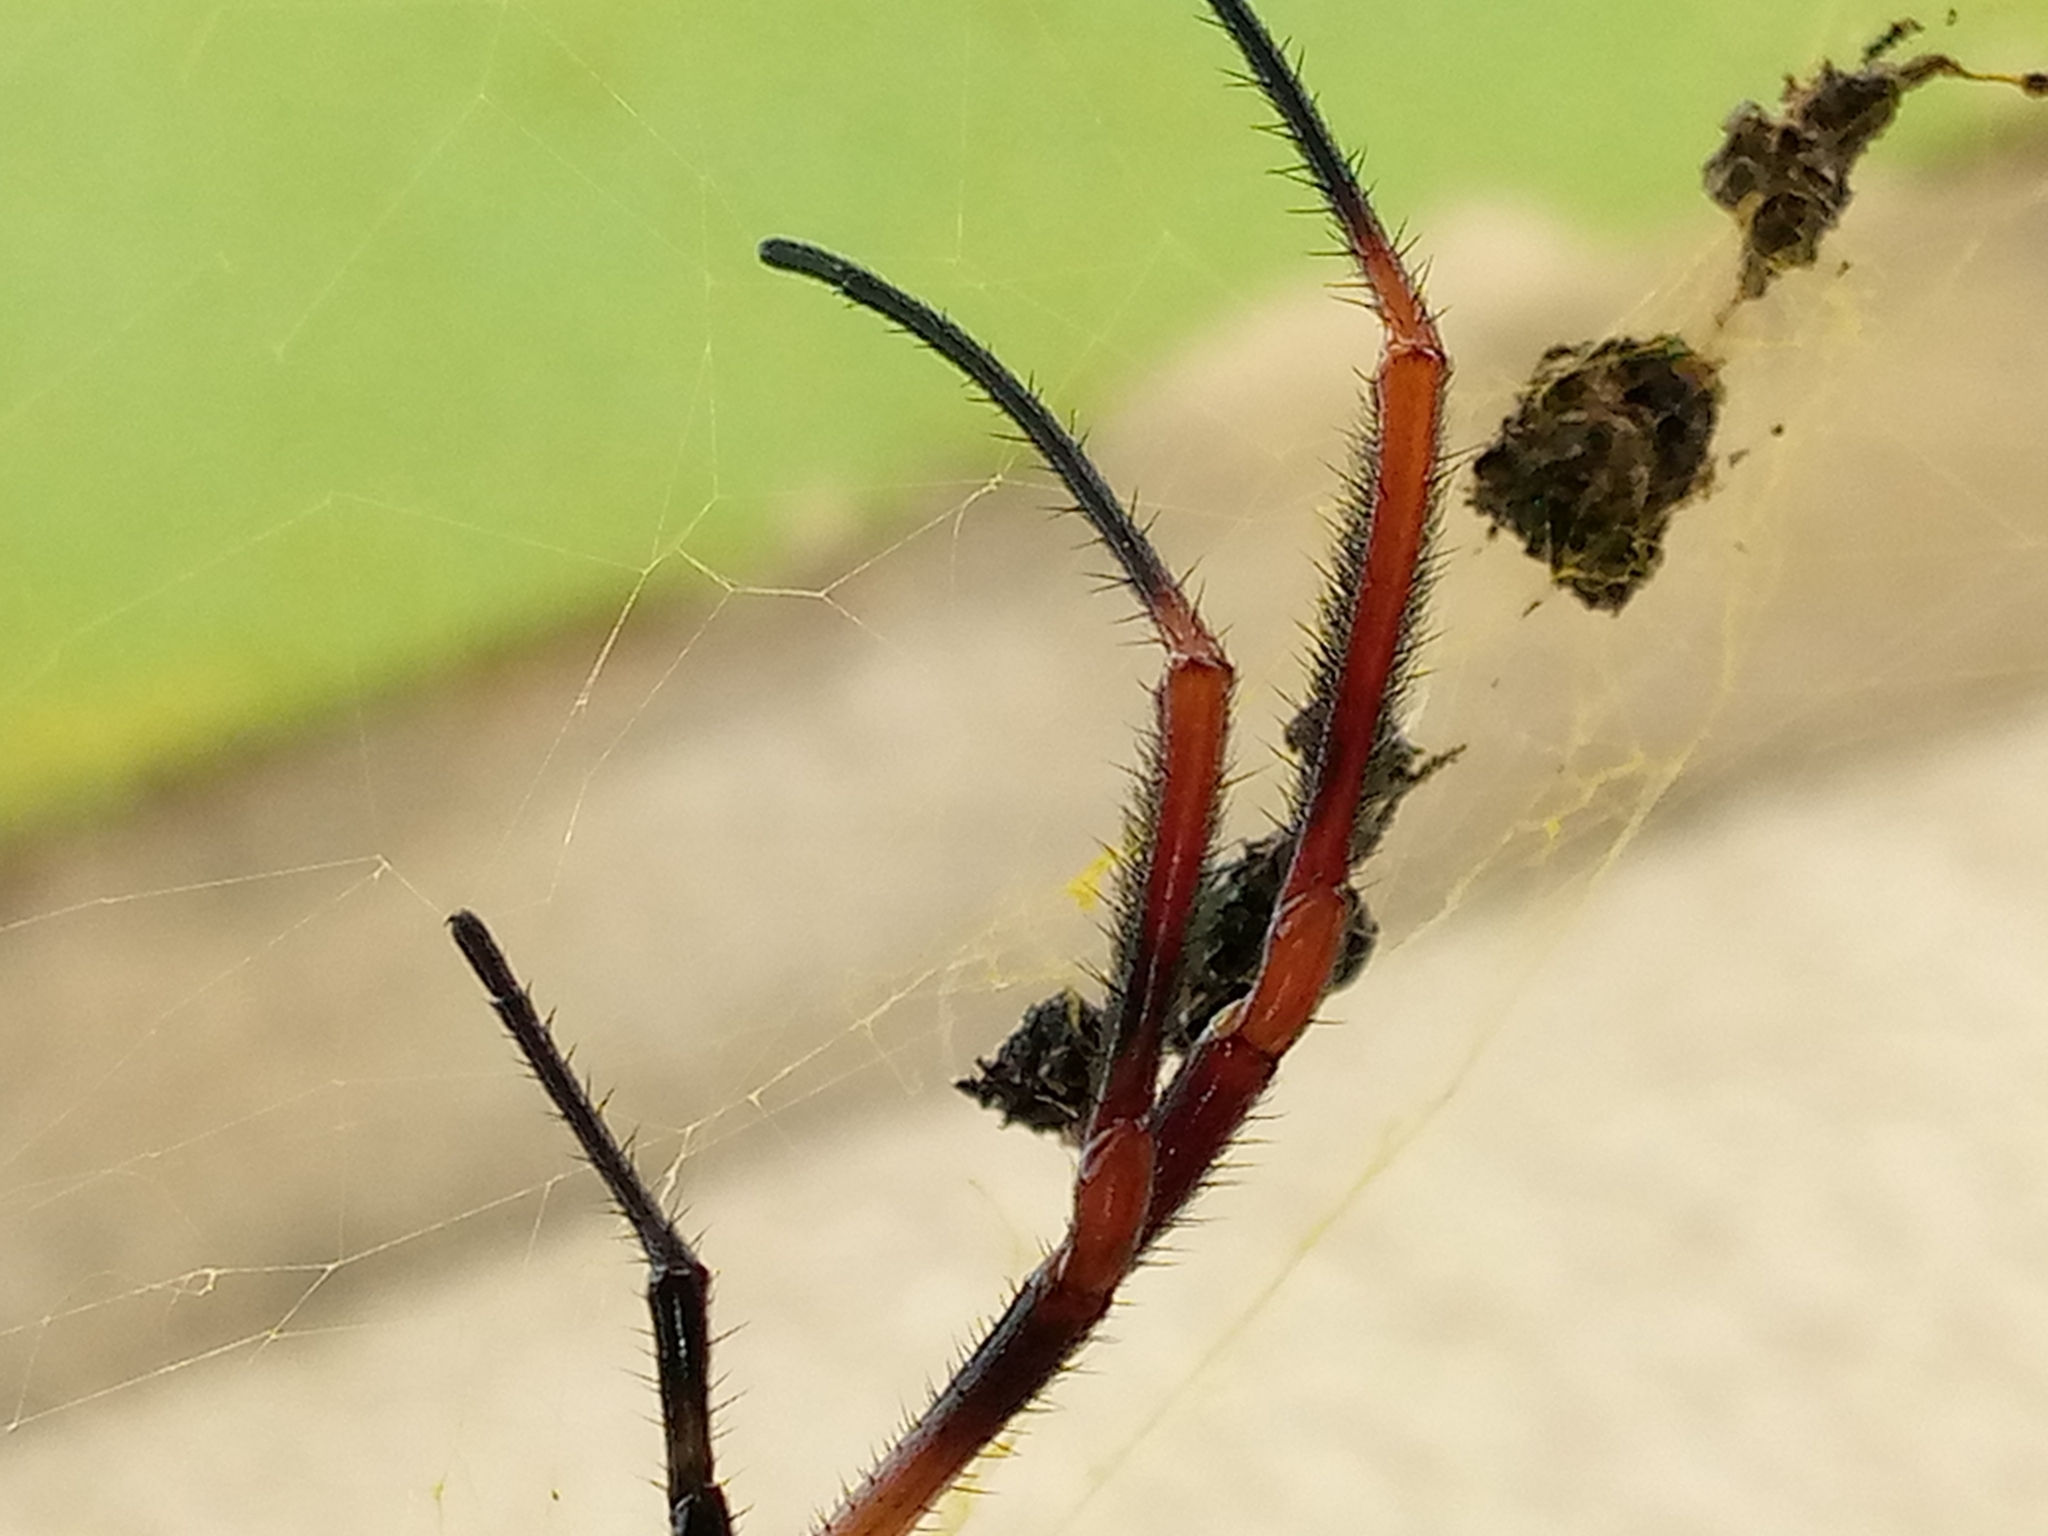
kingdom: Animalia
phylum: Arthropoda
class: Arachnida
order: Araneae
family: Araneidae
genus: Trichonephila
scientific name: Trichonephila sexpunctata
